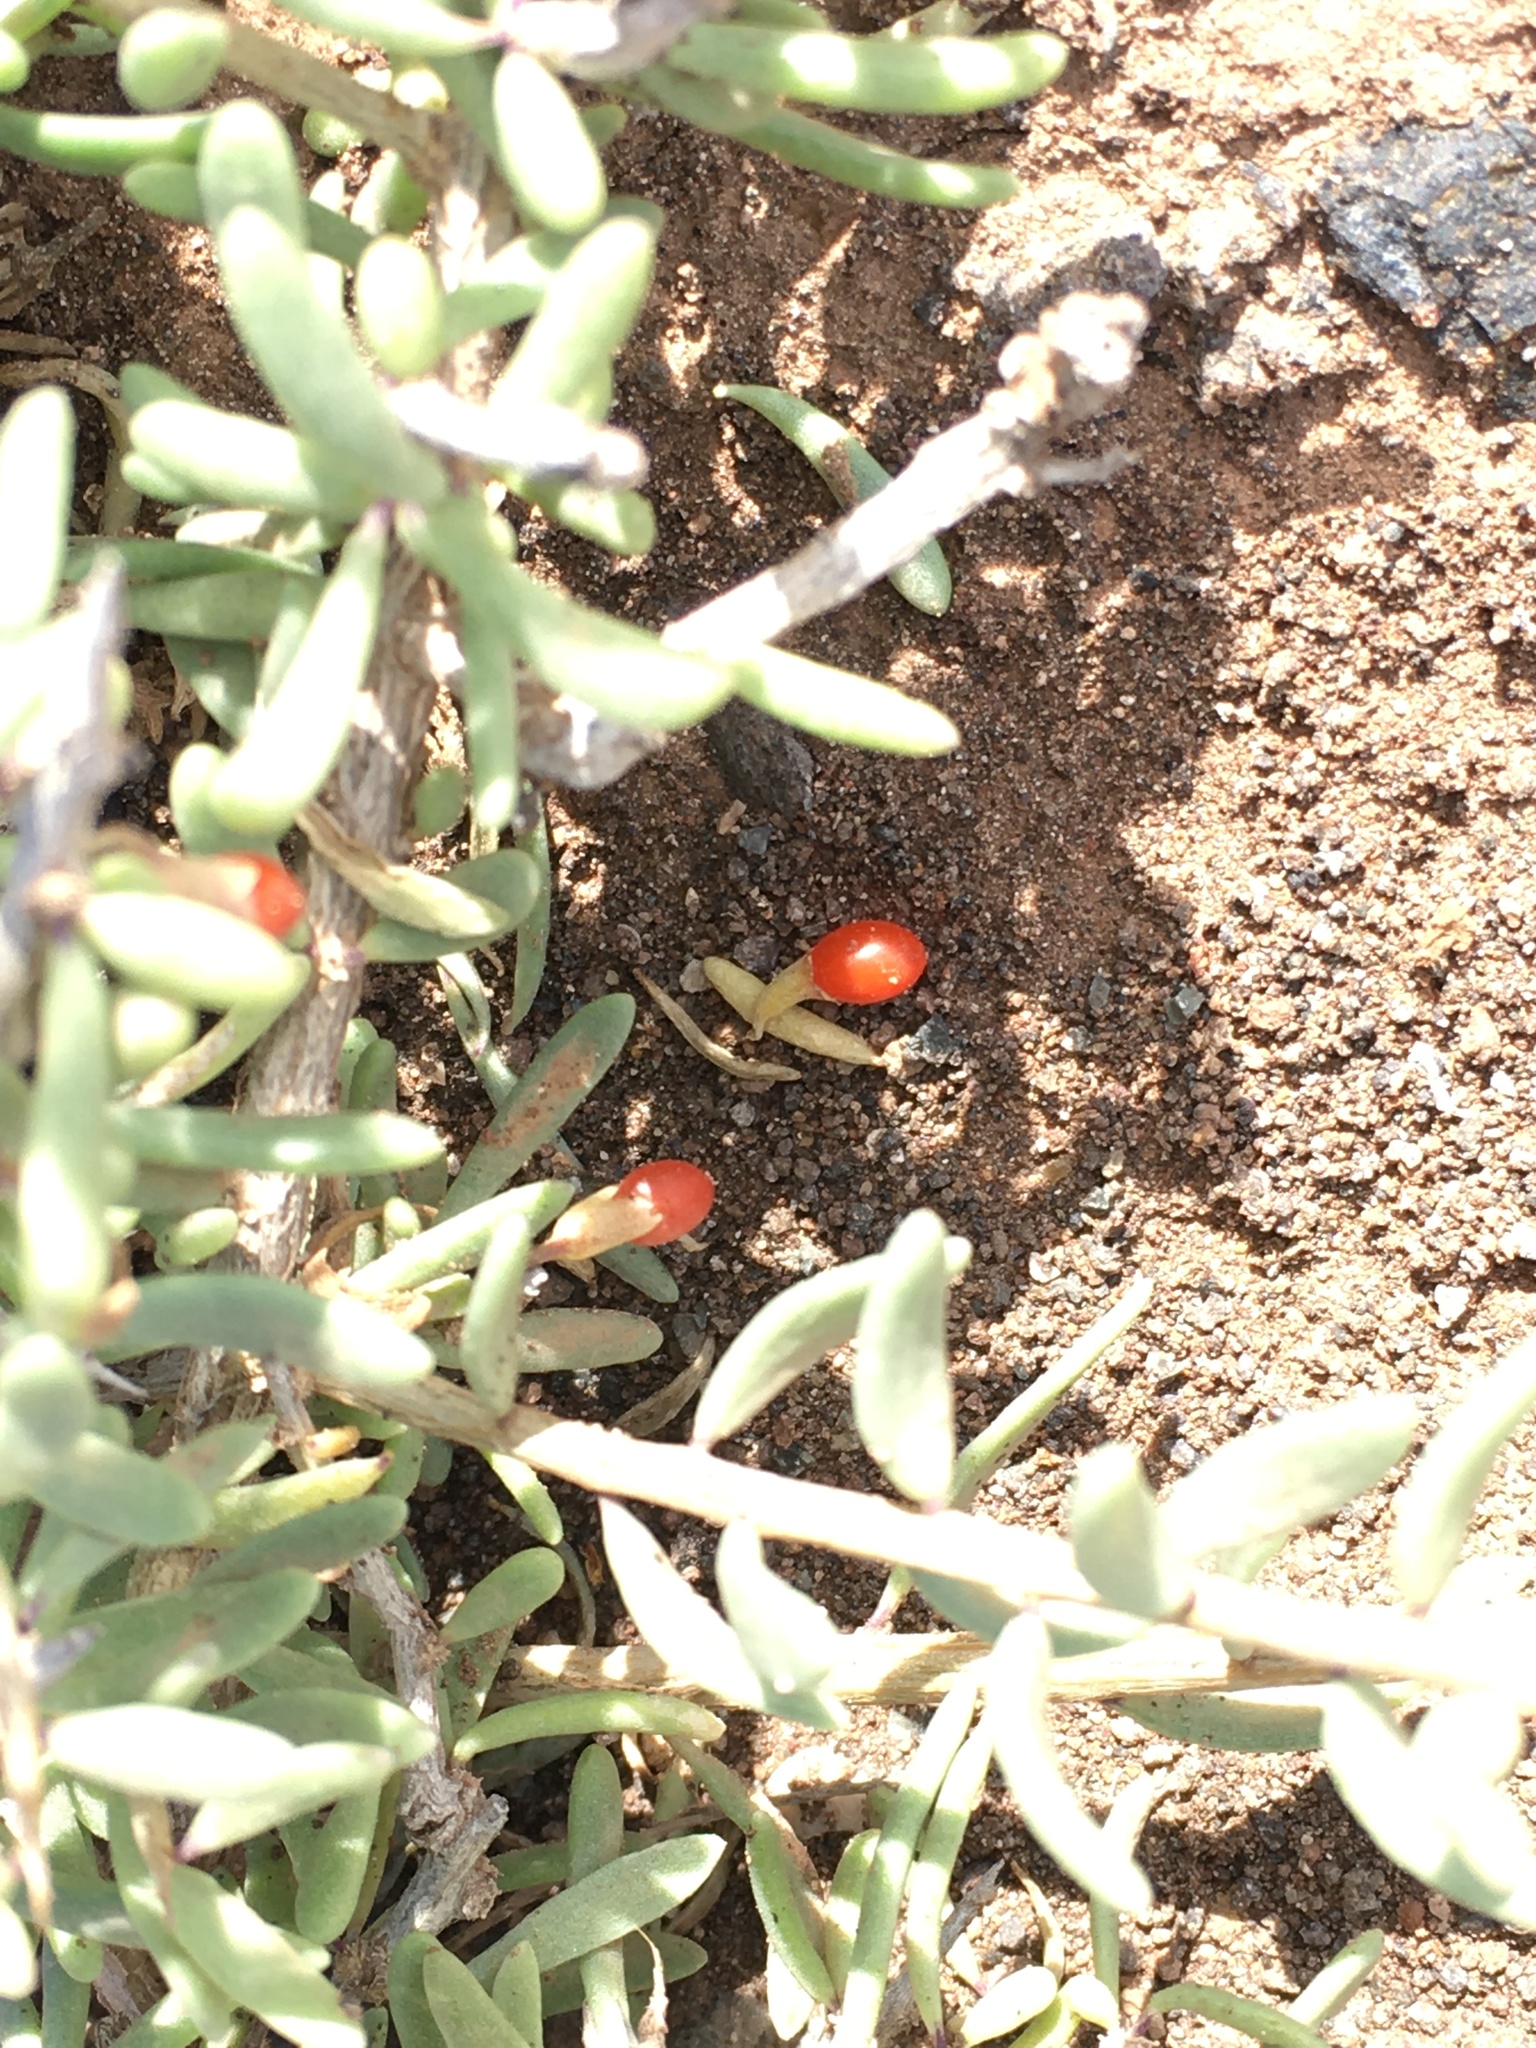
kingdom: Plantae
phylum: Tracheophyta
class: Magnoliopsida
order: Solanales
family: Solanaceae
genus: Lycium
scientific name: Lycium intricatum
